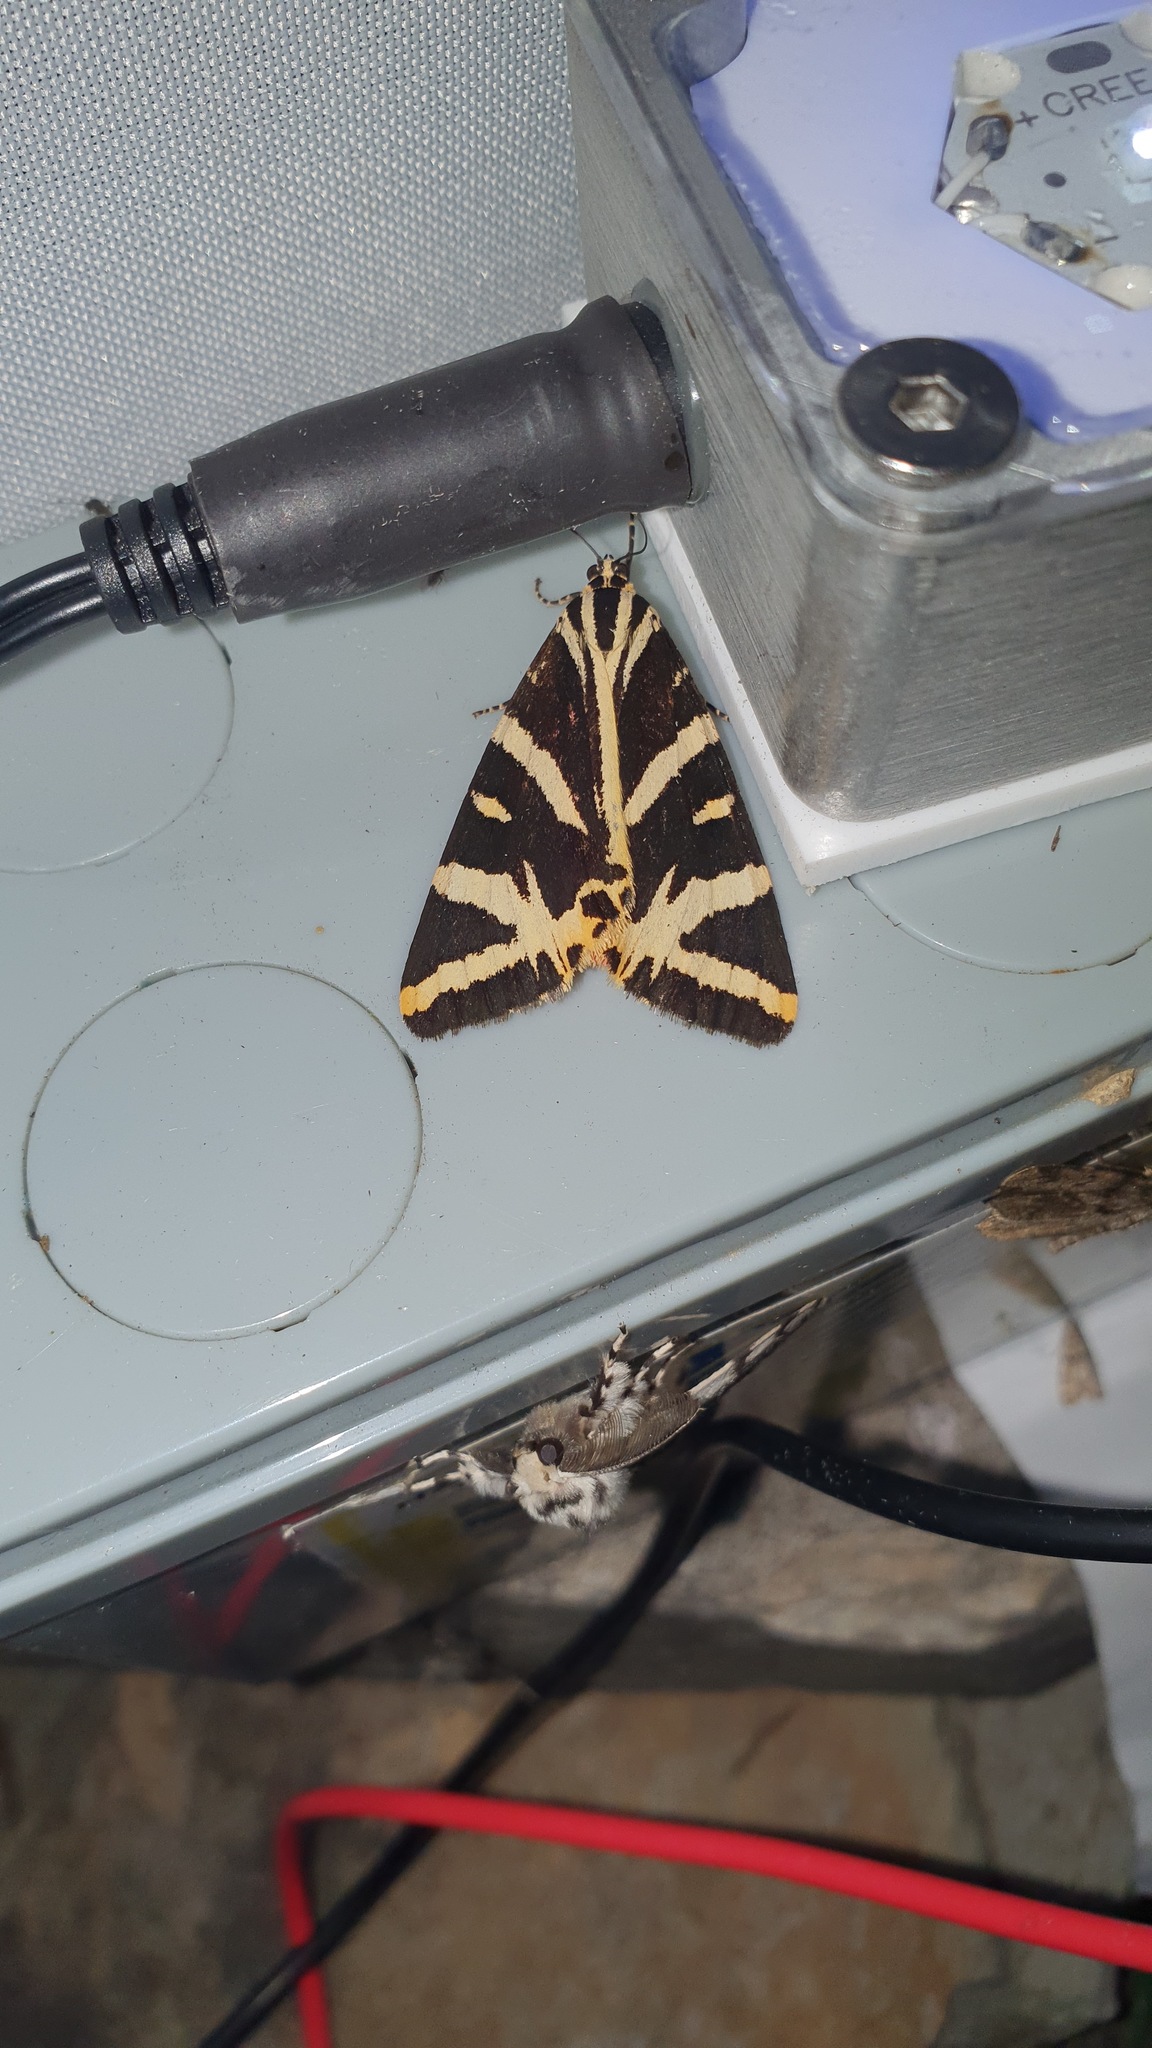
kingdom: Animalia
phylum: Arthropoda
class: Insecta
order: Lepidoptera
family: Erebidae
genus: Euplagia
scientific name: Euplagia quadripunctaria
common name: Jersey tiger
